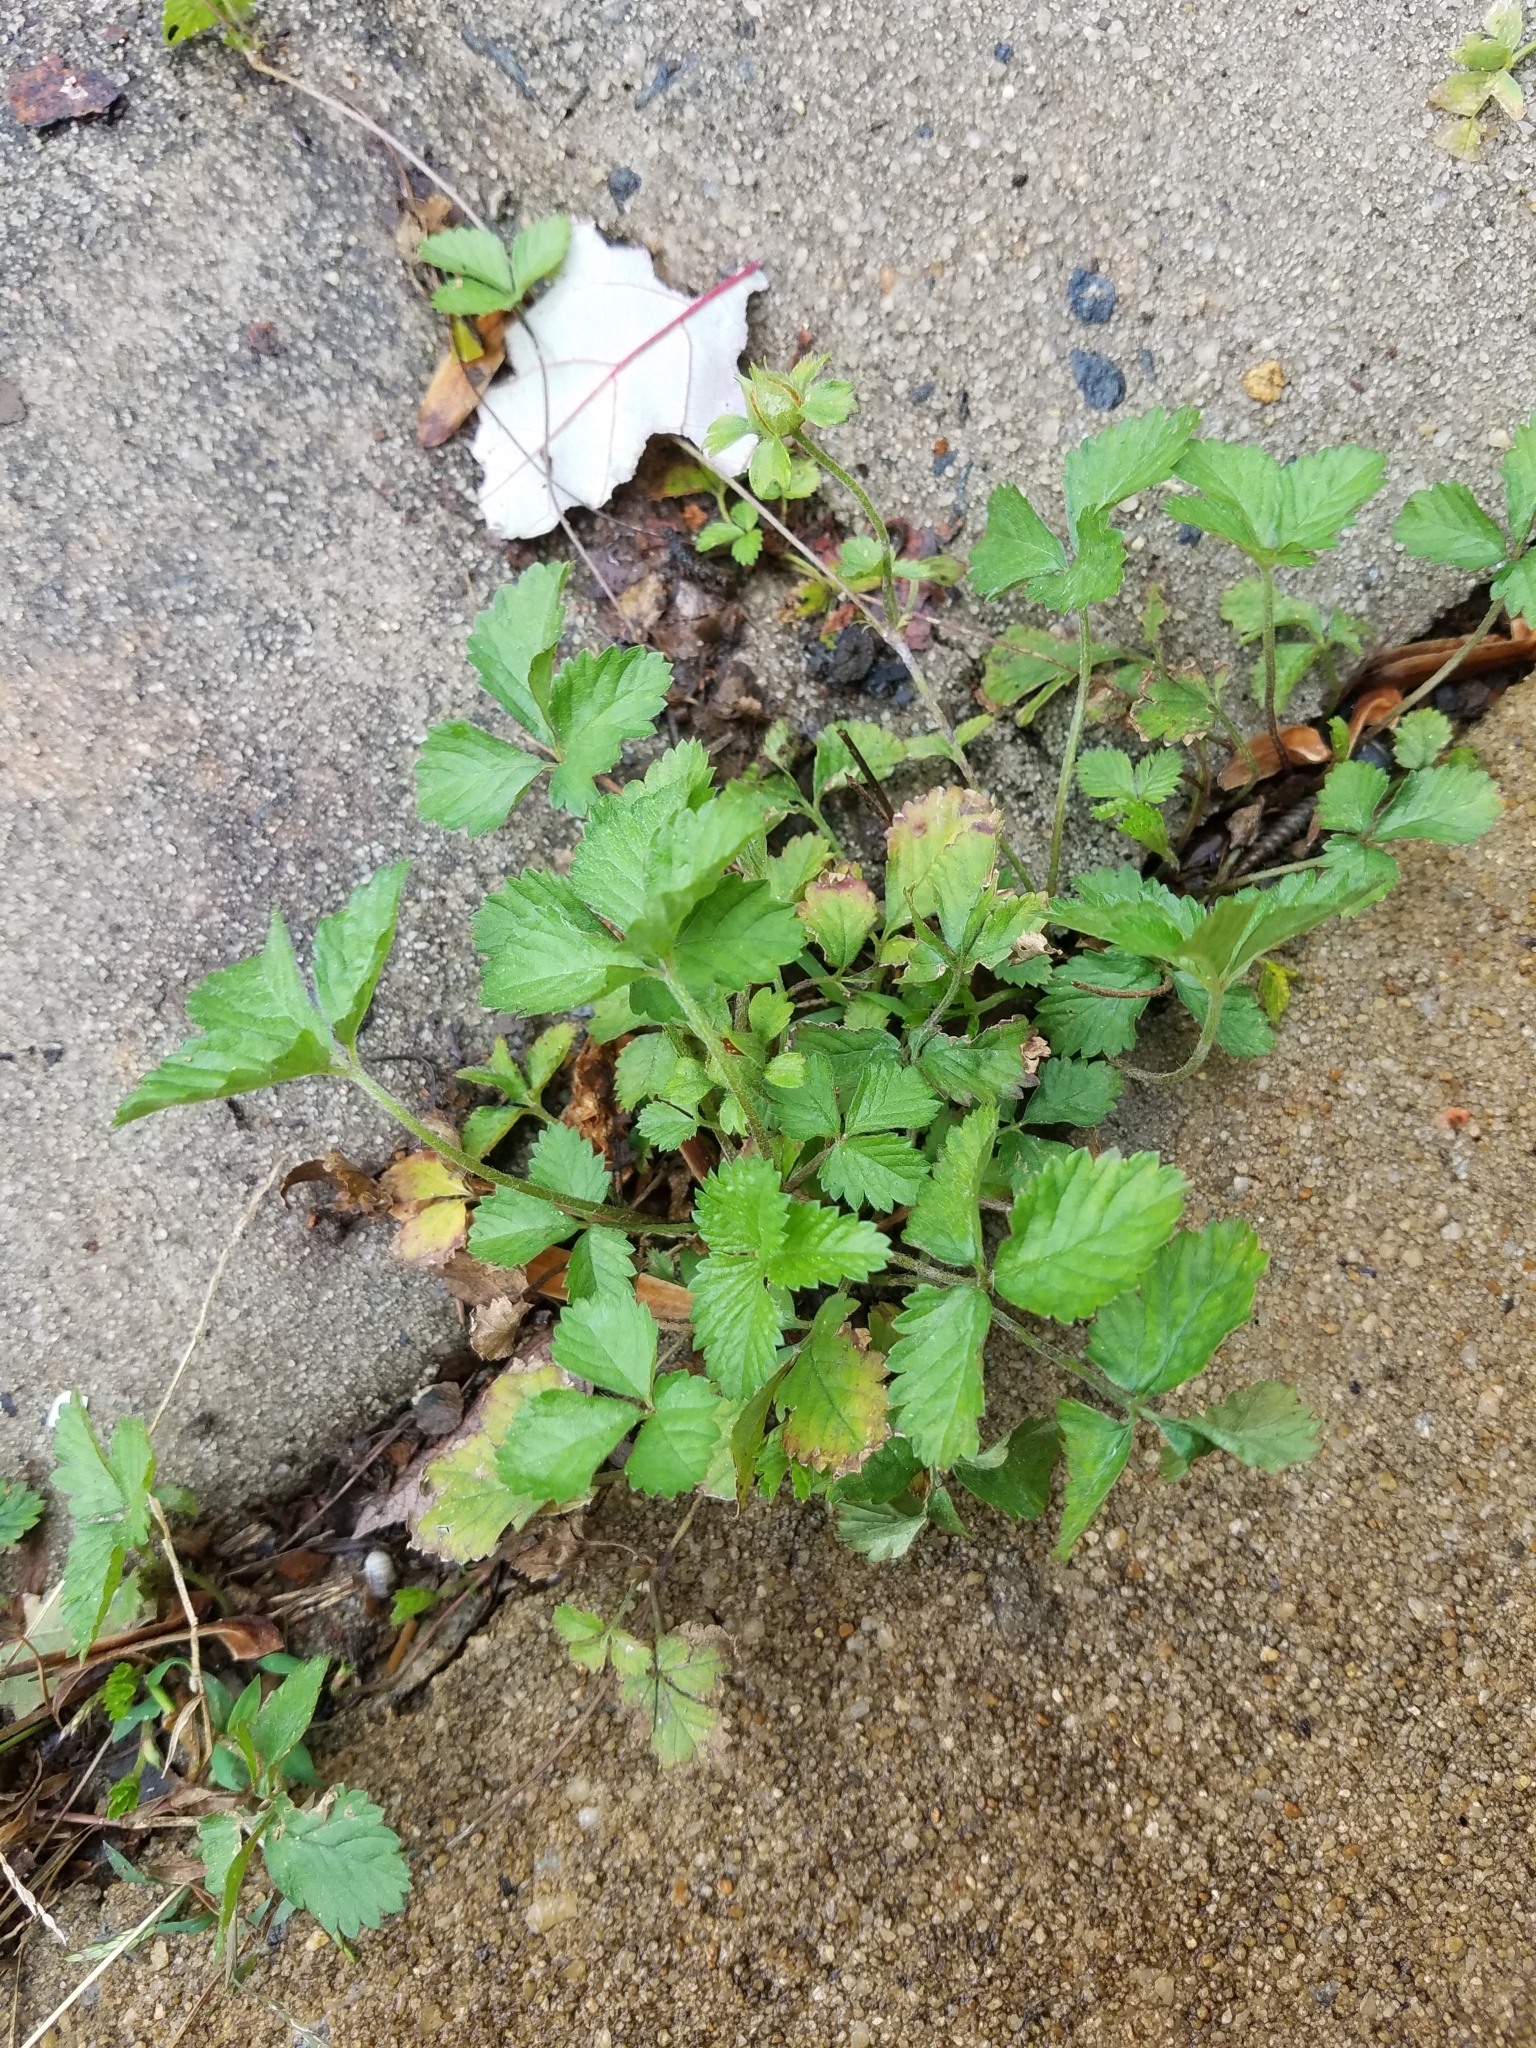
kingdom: Plantae
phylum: Tracheophyta
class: Magnoliopsida
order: Rosales
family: Rosaceae
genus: Potentilla
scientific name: Potentilla indica
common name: Yellow-flowered strawberry
